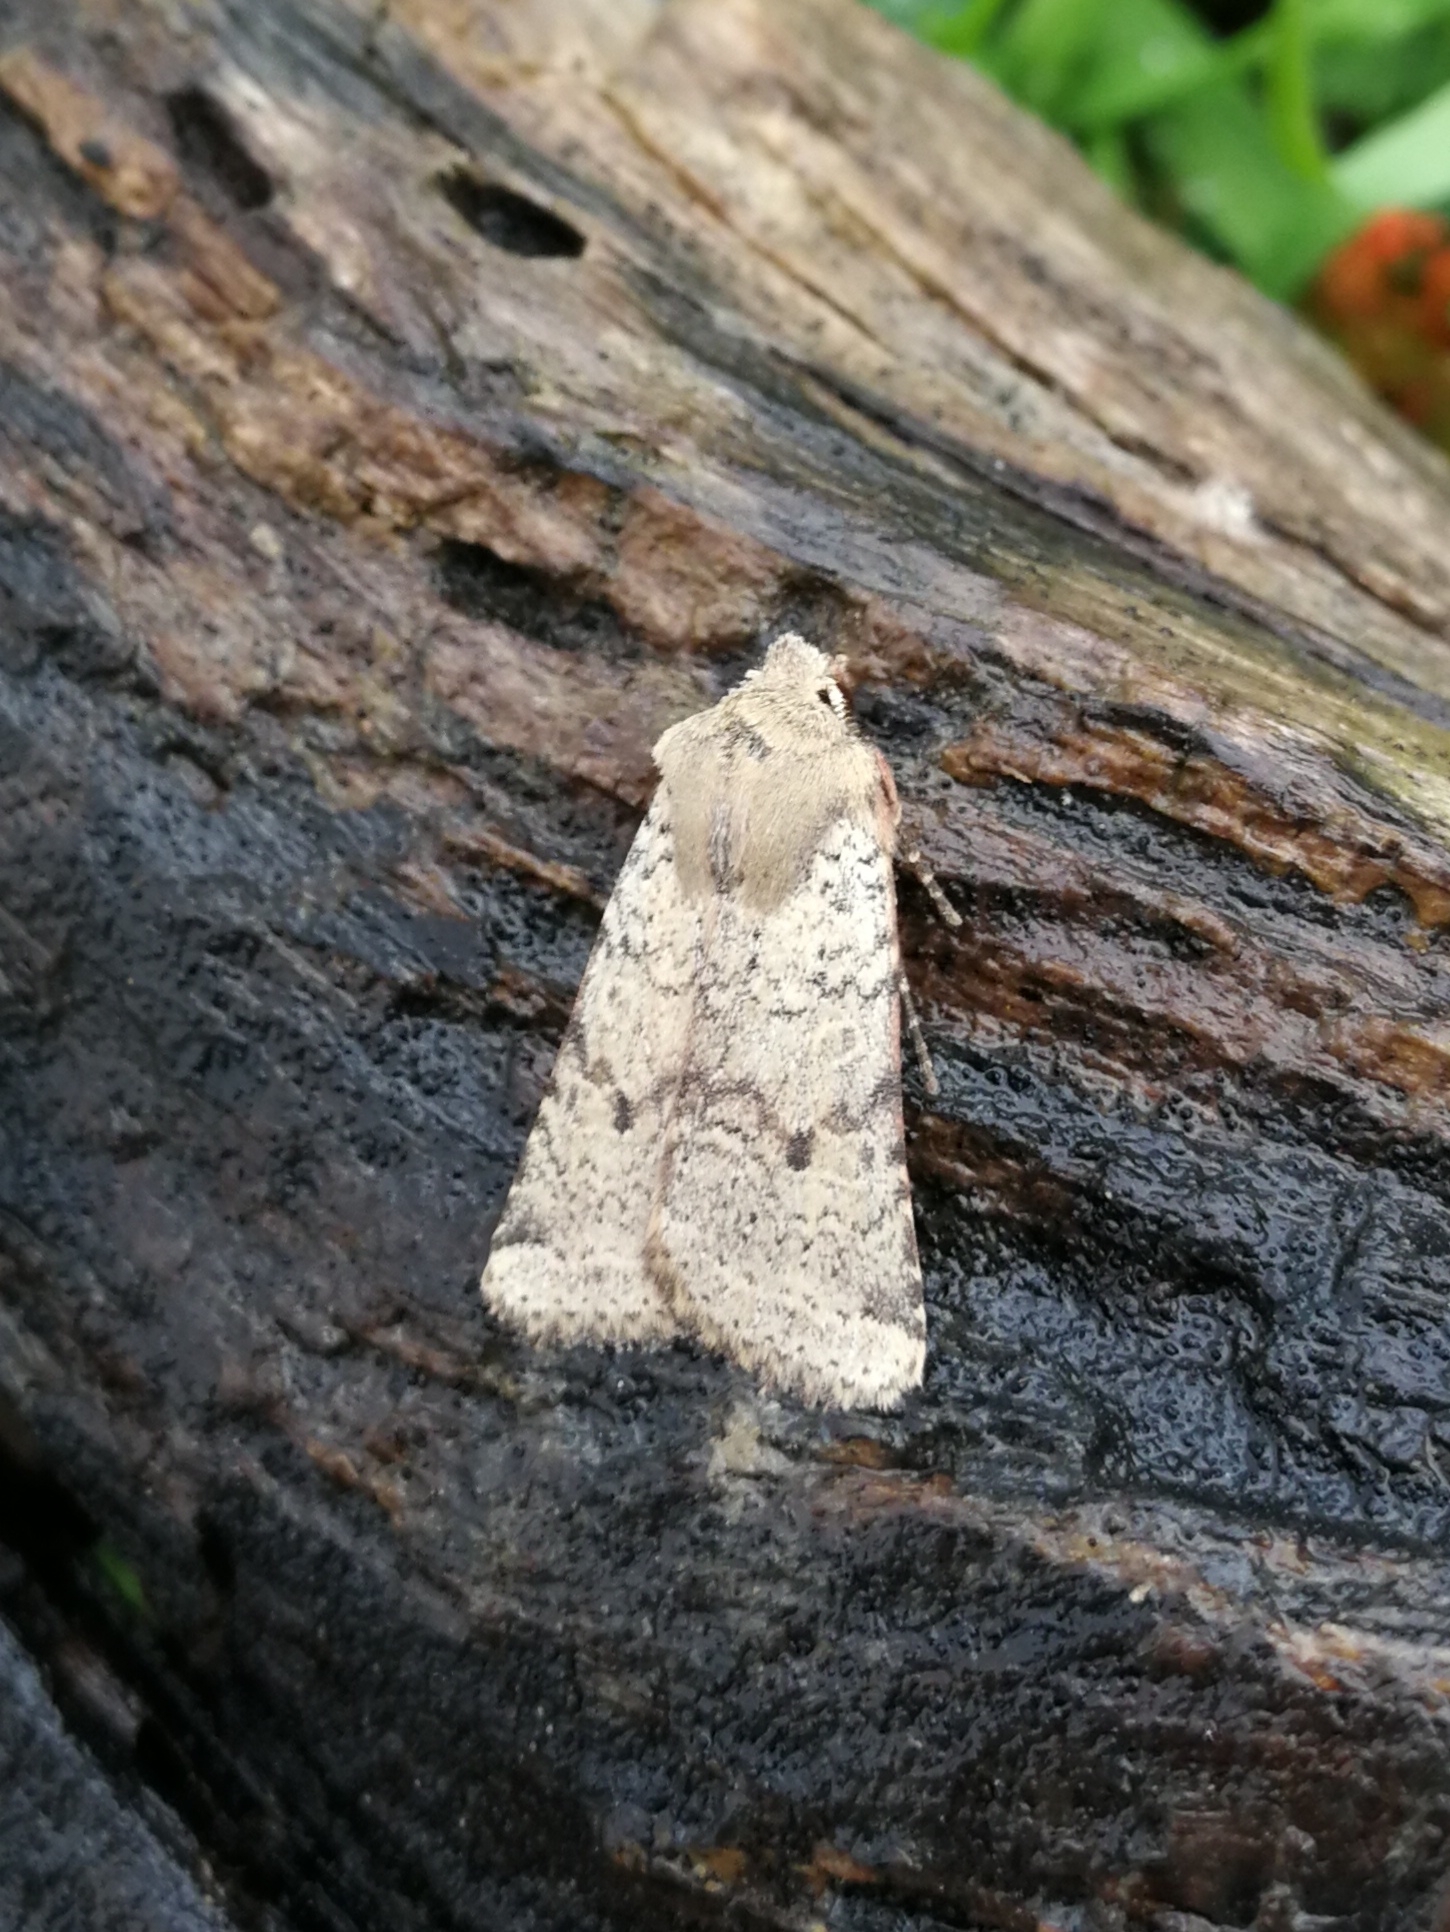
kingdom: Animalia
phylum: Arthropoda
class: Insecta
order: Lepidoptera
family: Noctuidae
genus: Agrochola
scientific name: Agrochola ruticilla
